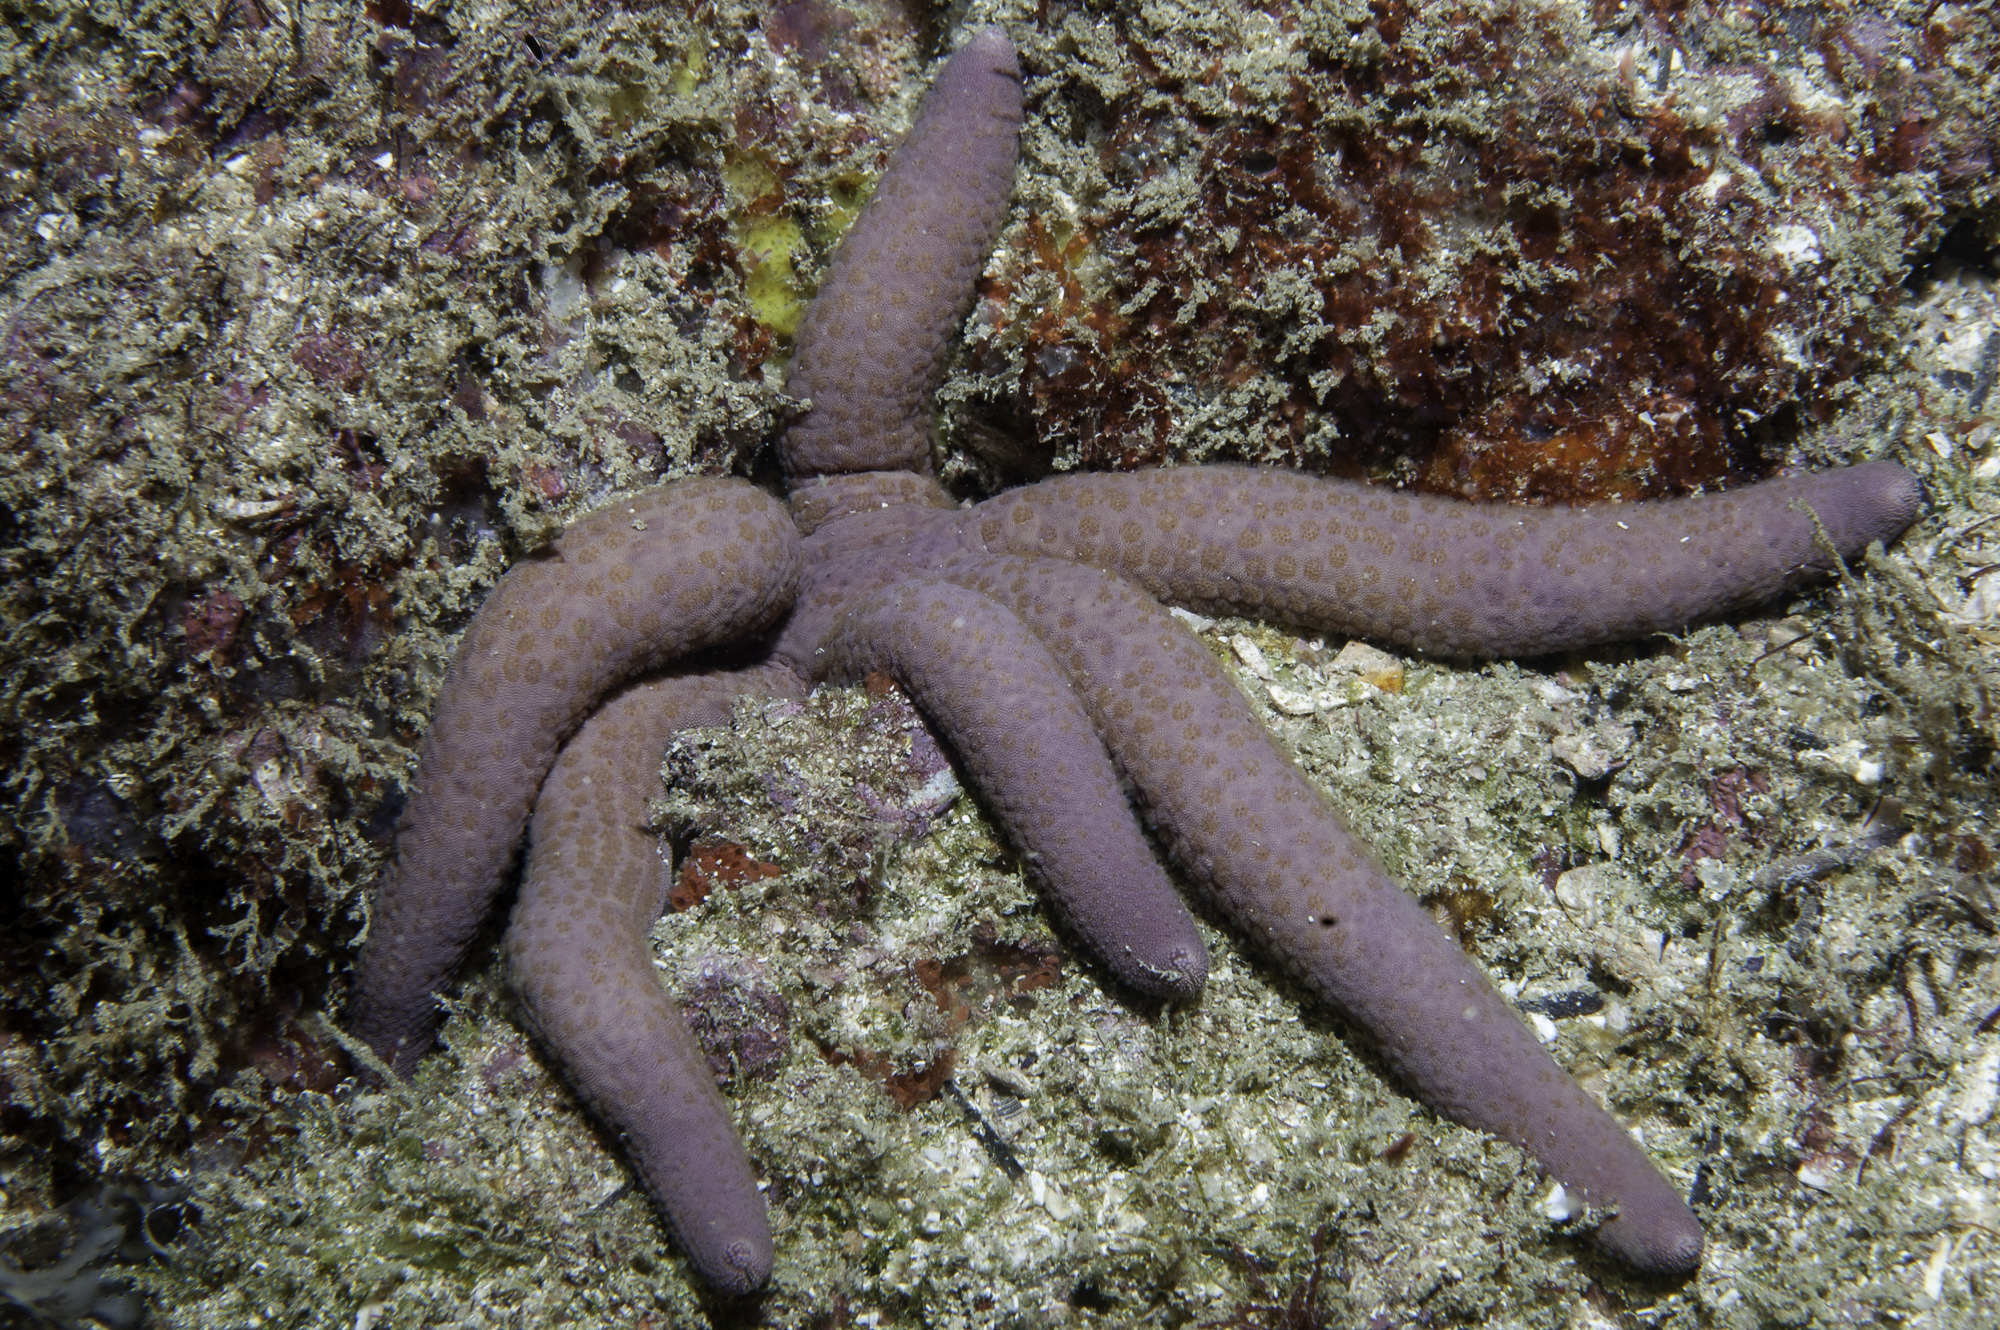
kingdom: Animalia
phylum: Echinodermata
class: Asteroidea
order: Valvatida
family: Ophidiasteridae
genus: Linckia
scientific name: Linckia guildingi
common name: Common comet star
